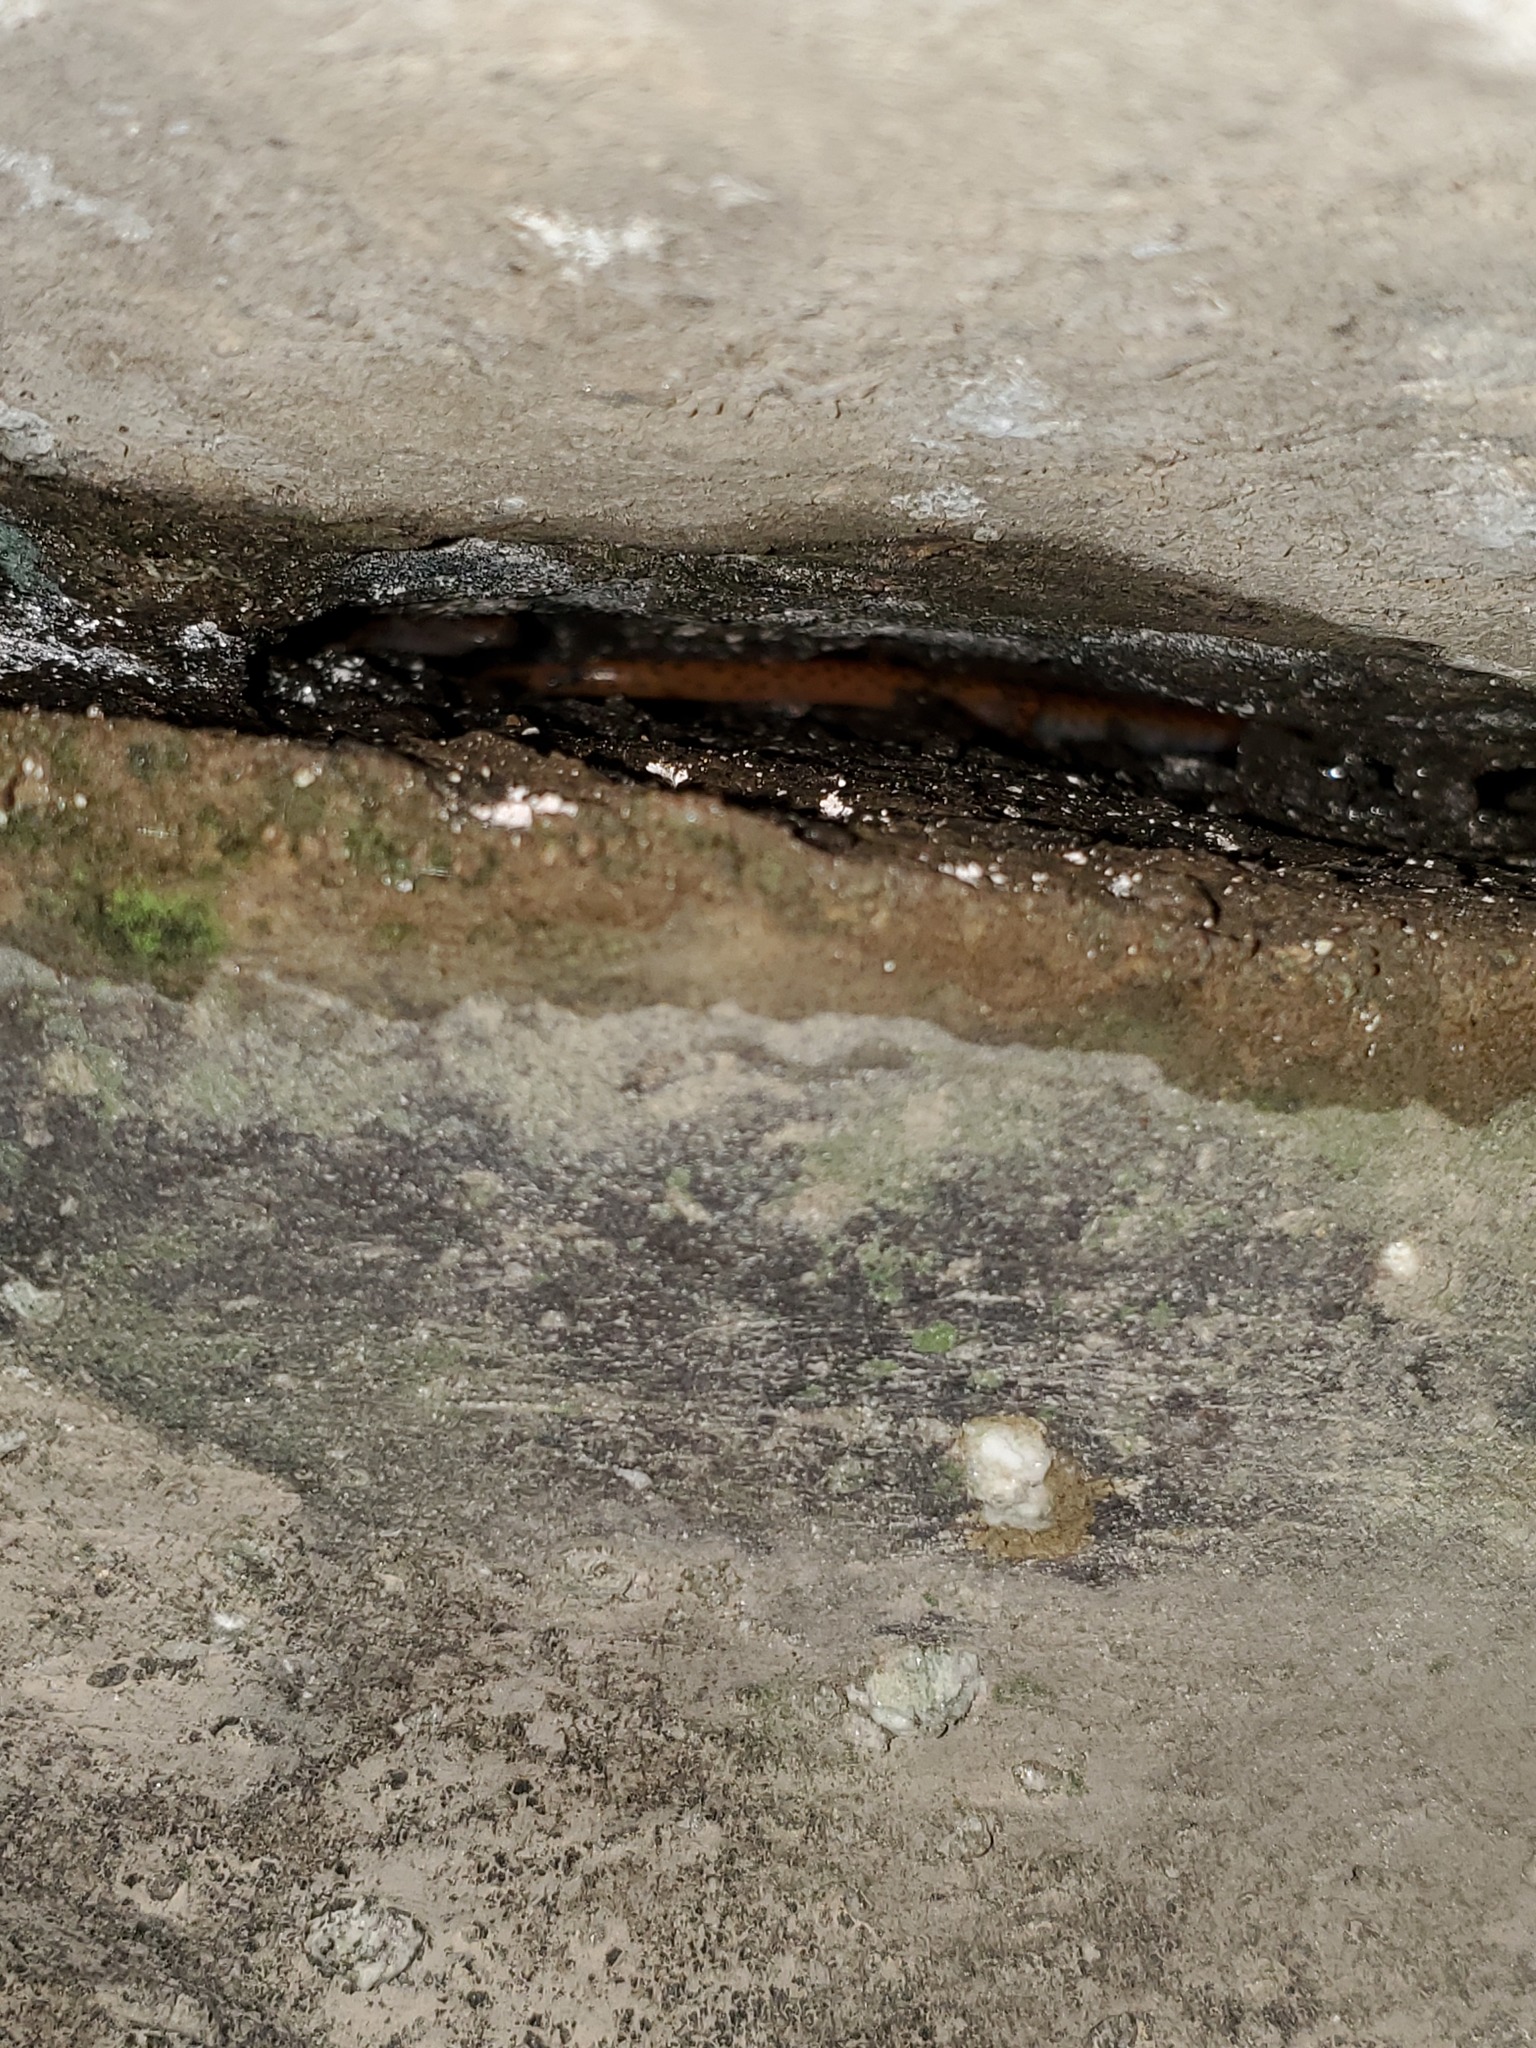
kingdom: Animalia
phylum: Chordata
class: Amphibia
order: Caudata
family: Plethodontidae
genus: Eurycea
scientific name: Eurycea lucifuga
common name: Cave salamander
